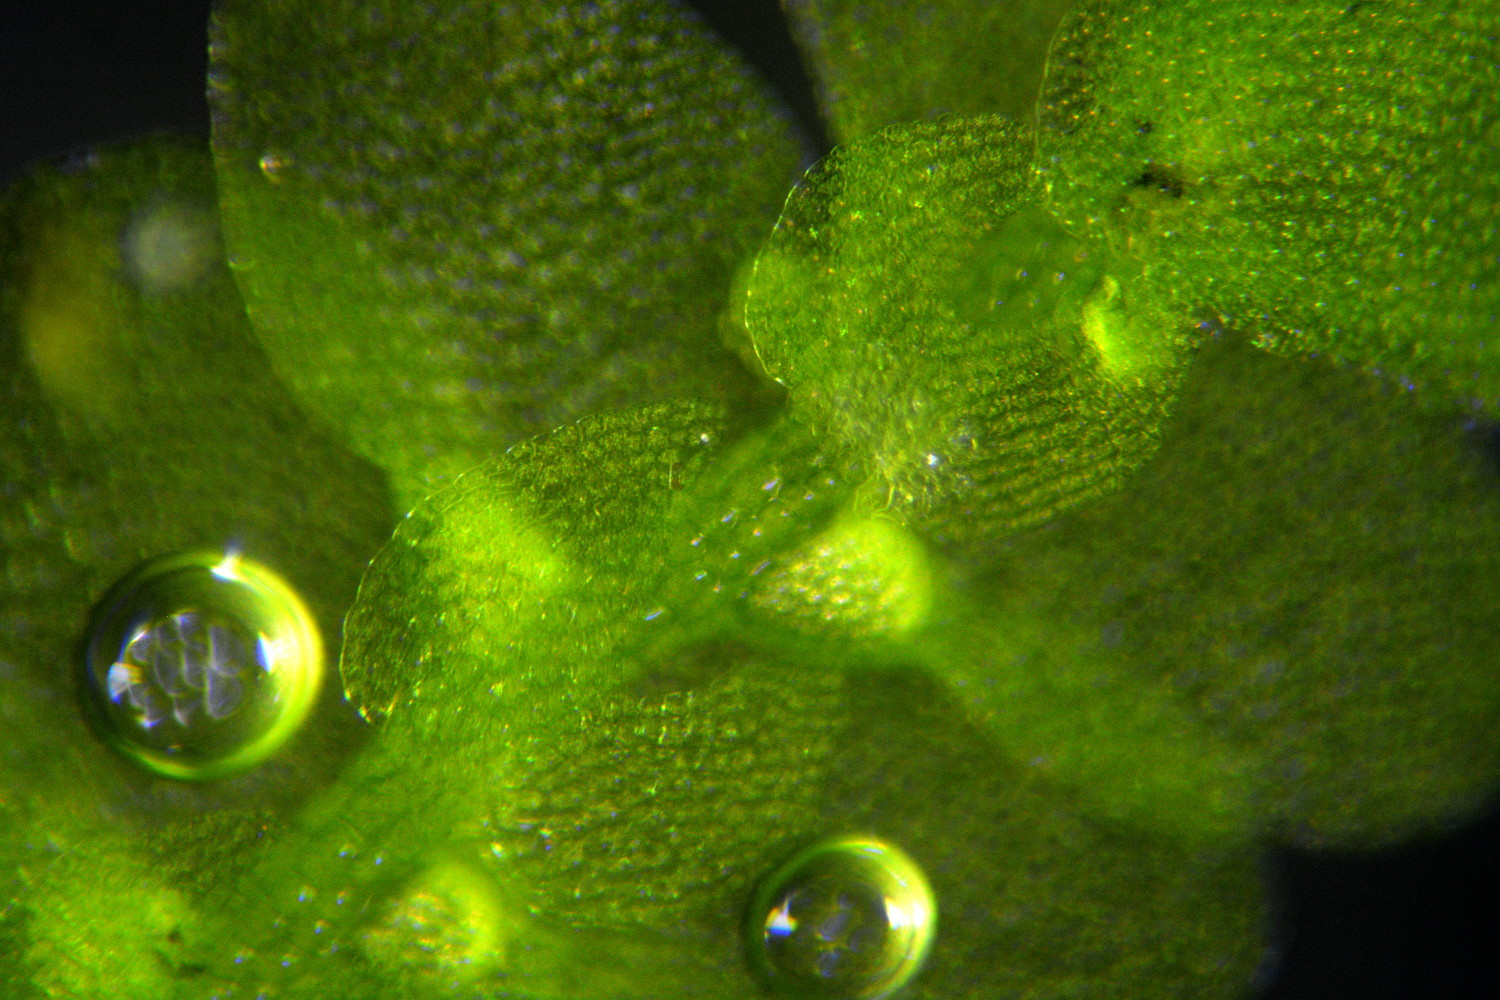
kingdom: Plantae
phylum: Marchantiophyta
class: Jungermanniopsida
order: Jungermanniales
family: Calypogeiaceae
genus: Calypogeia
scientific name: Calypogeia muelleriana
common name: Mueller s pouchwort
